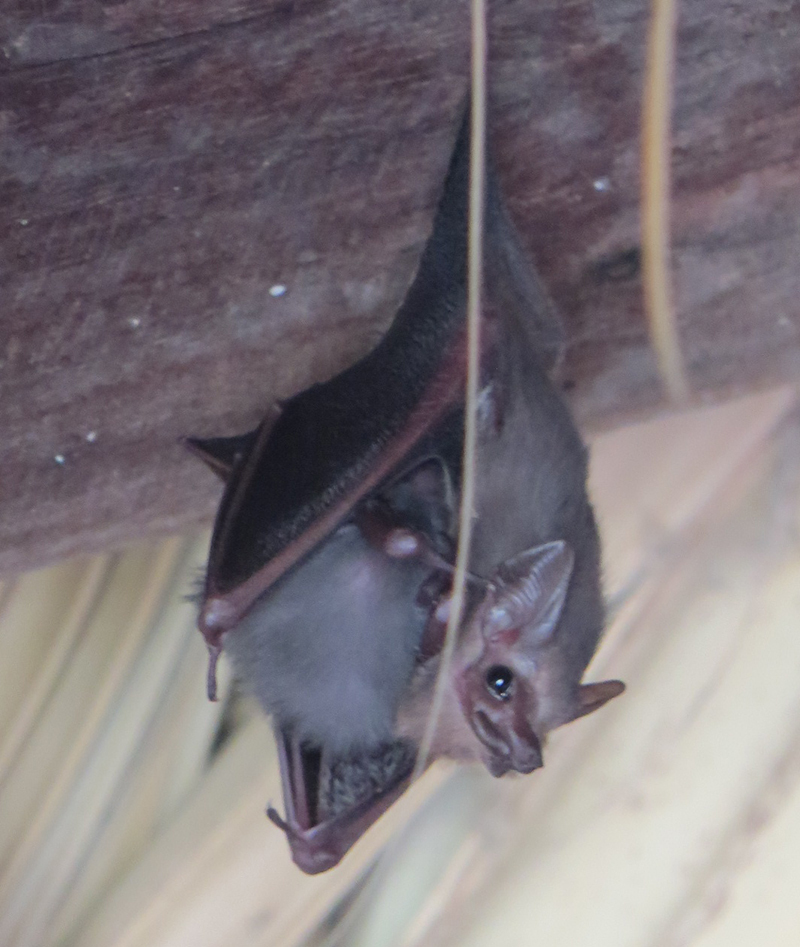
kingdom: Animalia
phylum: Chordata
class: Mammalia
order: Chiroptera
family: Emballonuridae
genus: Balantiopteryx
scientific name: Balantiopteryx plicata
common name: Gray sac-winged bat
